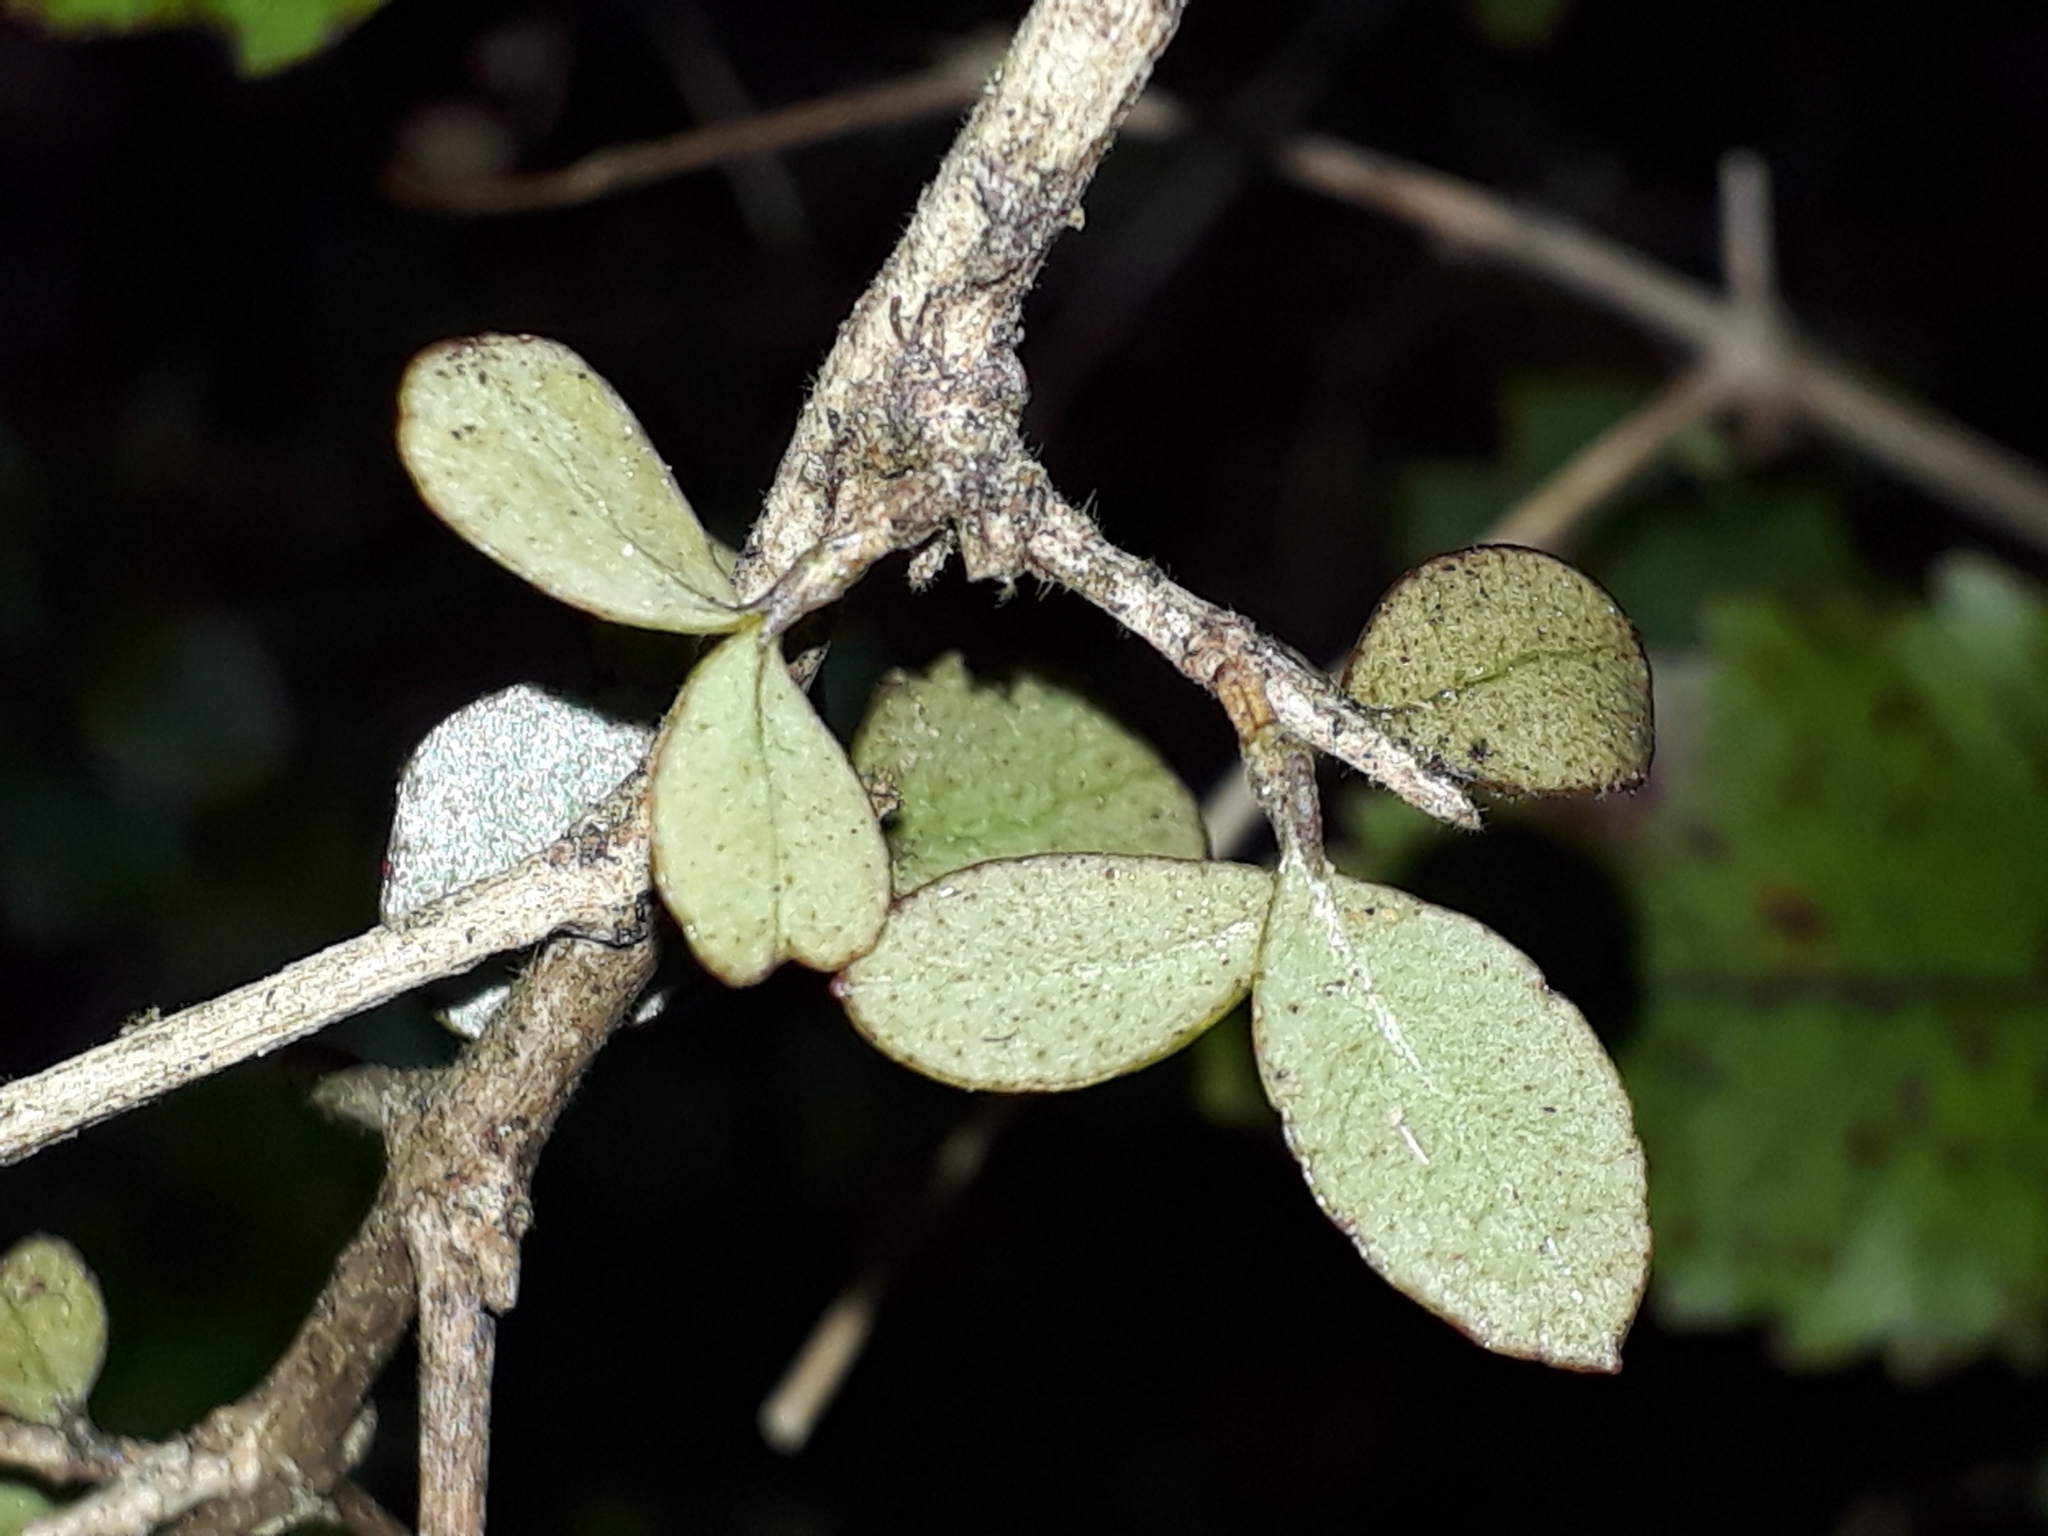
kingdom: Plantae
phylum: Tracheophyta
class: Magnoliopsida
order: Myrtales
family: Myrtaceae
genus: Neomyrtus
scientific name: Neomyrtus pedunculata
